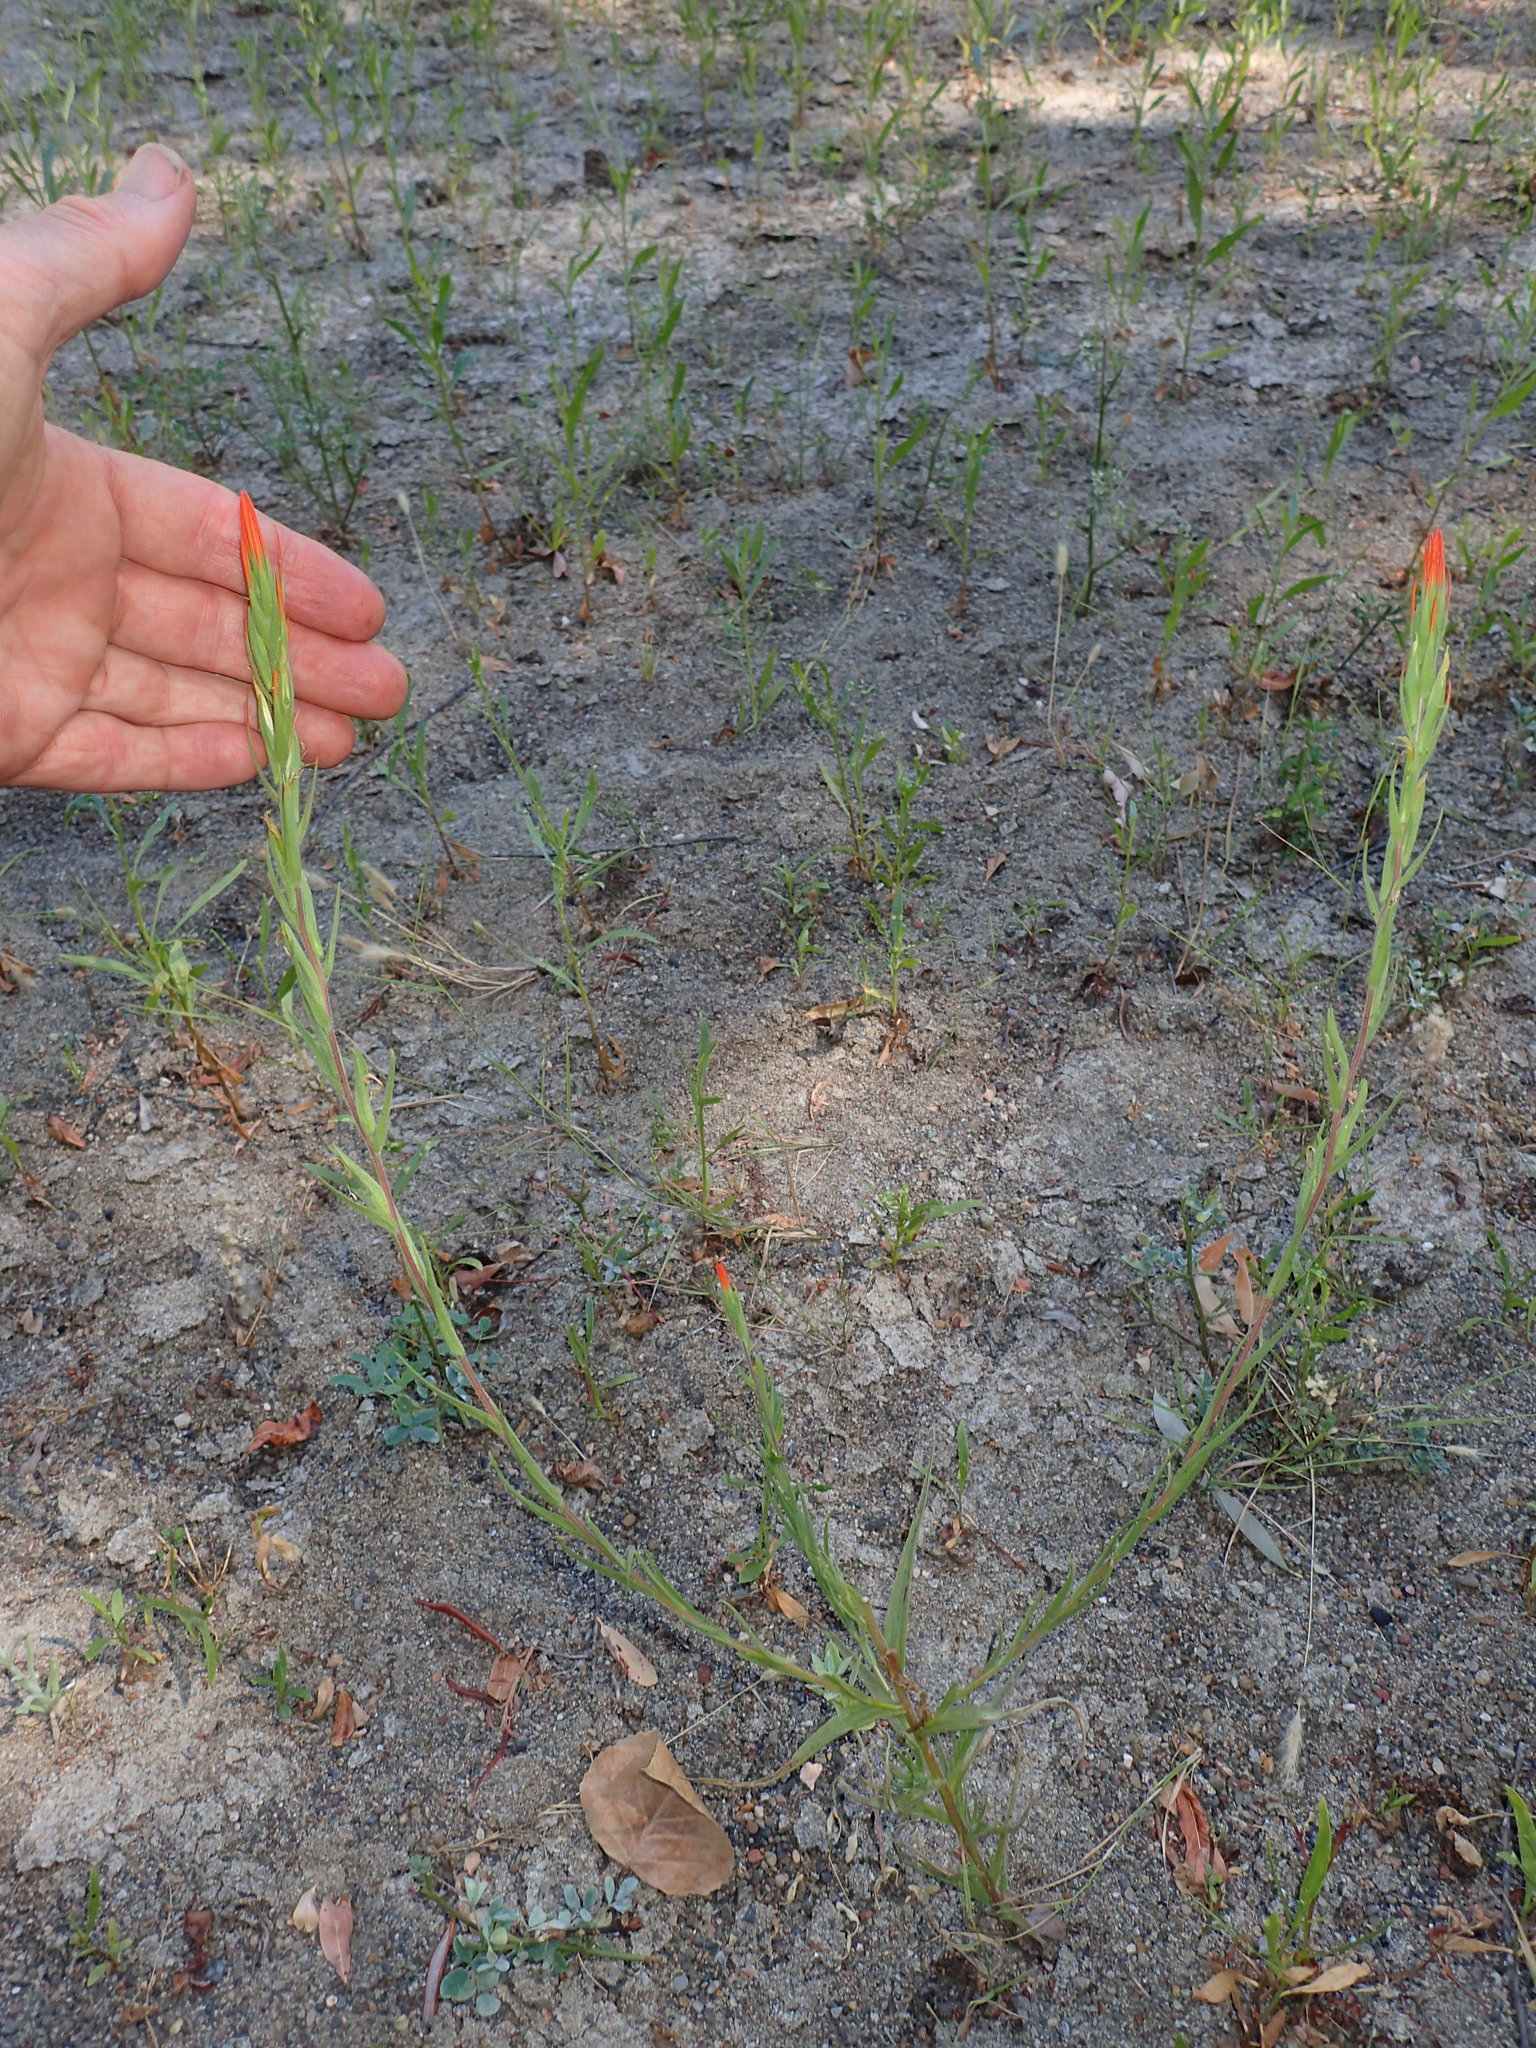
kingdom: Plantae
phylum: Tracheophyta
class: Magnoliopsida
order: Lamiales
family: Orobanchaceae
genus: Castilleja
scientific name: Castilleja minor
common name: Seep paintbrush
